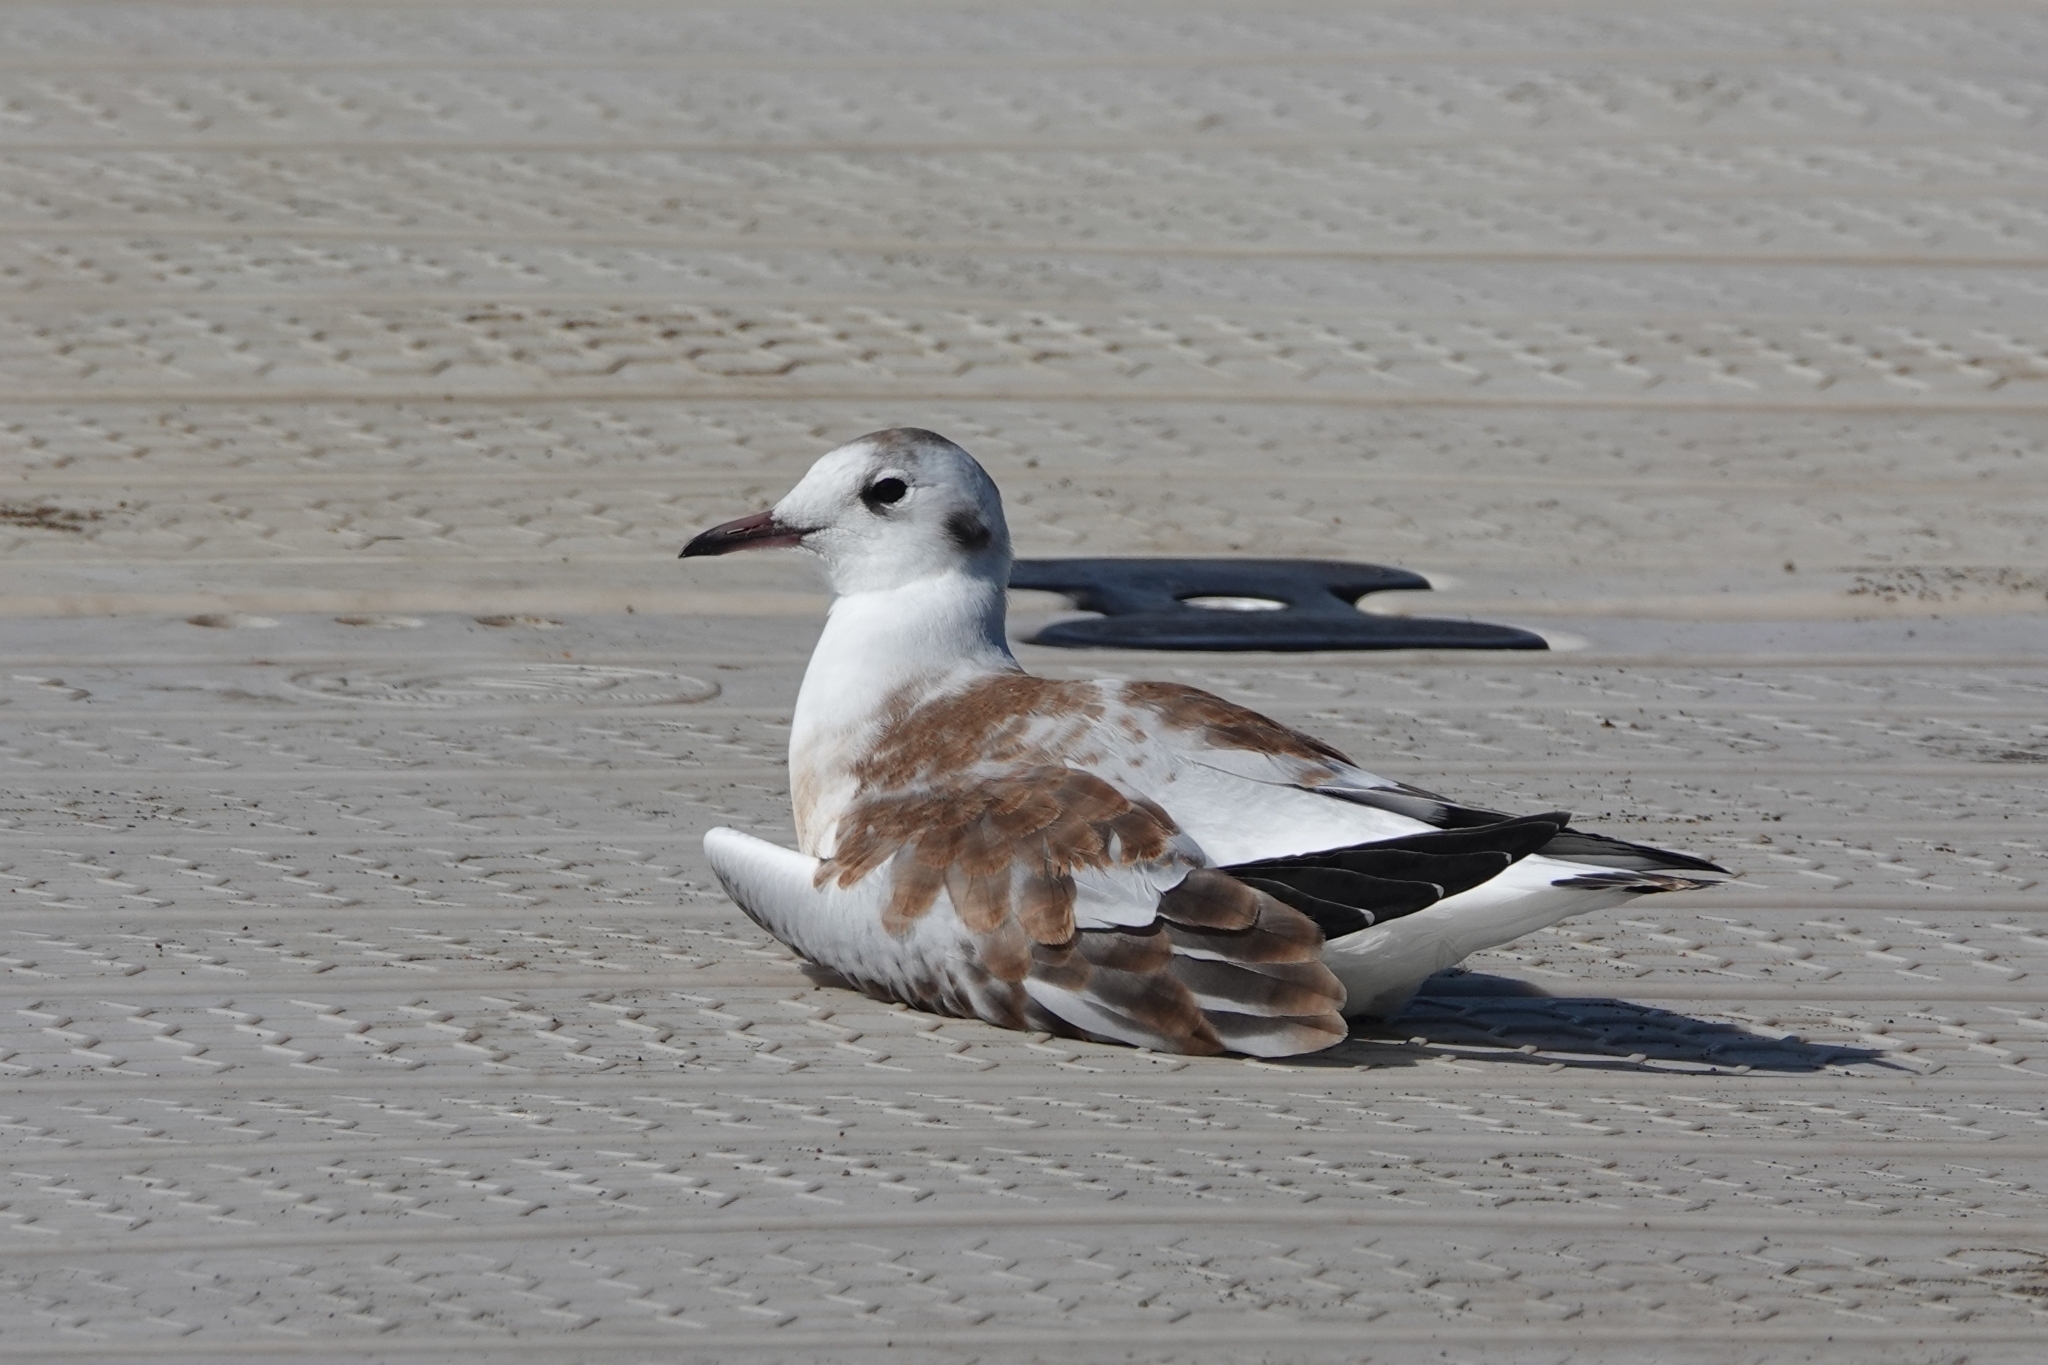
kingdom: Animalia
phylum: Chordata
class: Aves
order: Charadriiformes
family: Laridae
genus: Chroicocephalus
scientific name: Chroicocephalus ridibundus
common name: Black-headed gull
